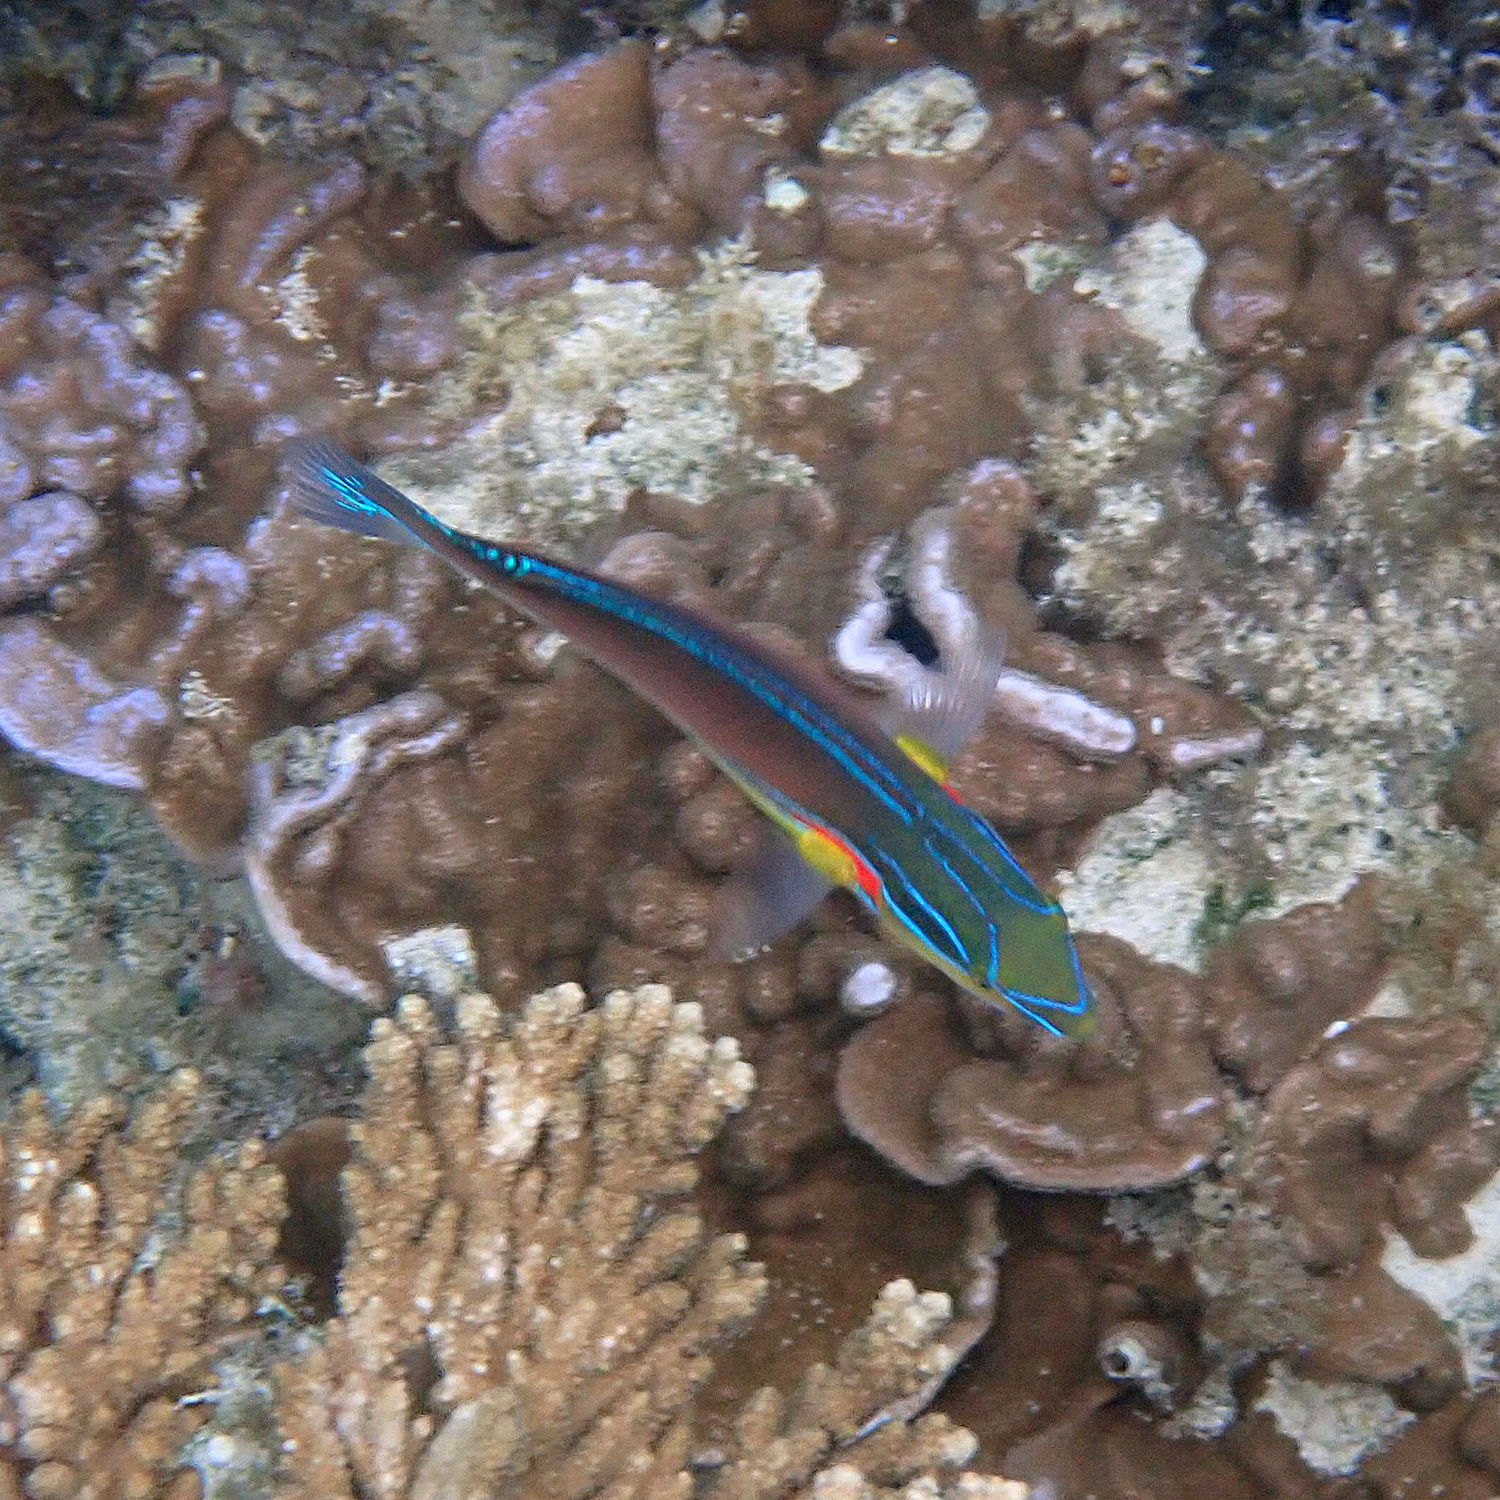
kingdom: Animalia
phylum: Chordata
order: Perciformes
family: Labridae
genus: Stethojulis
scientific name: Stethojulis bandanensis
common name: Red shoulder wrasse
